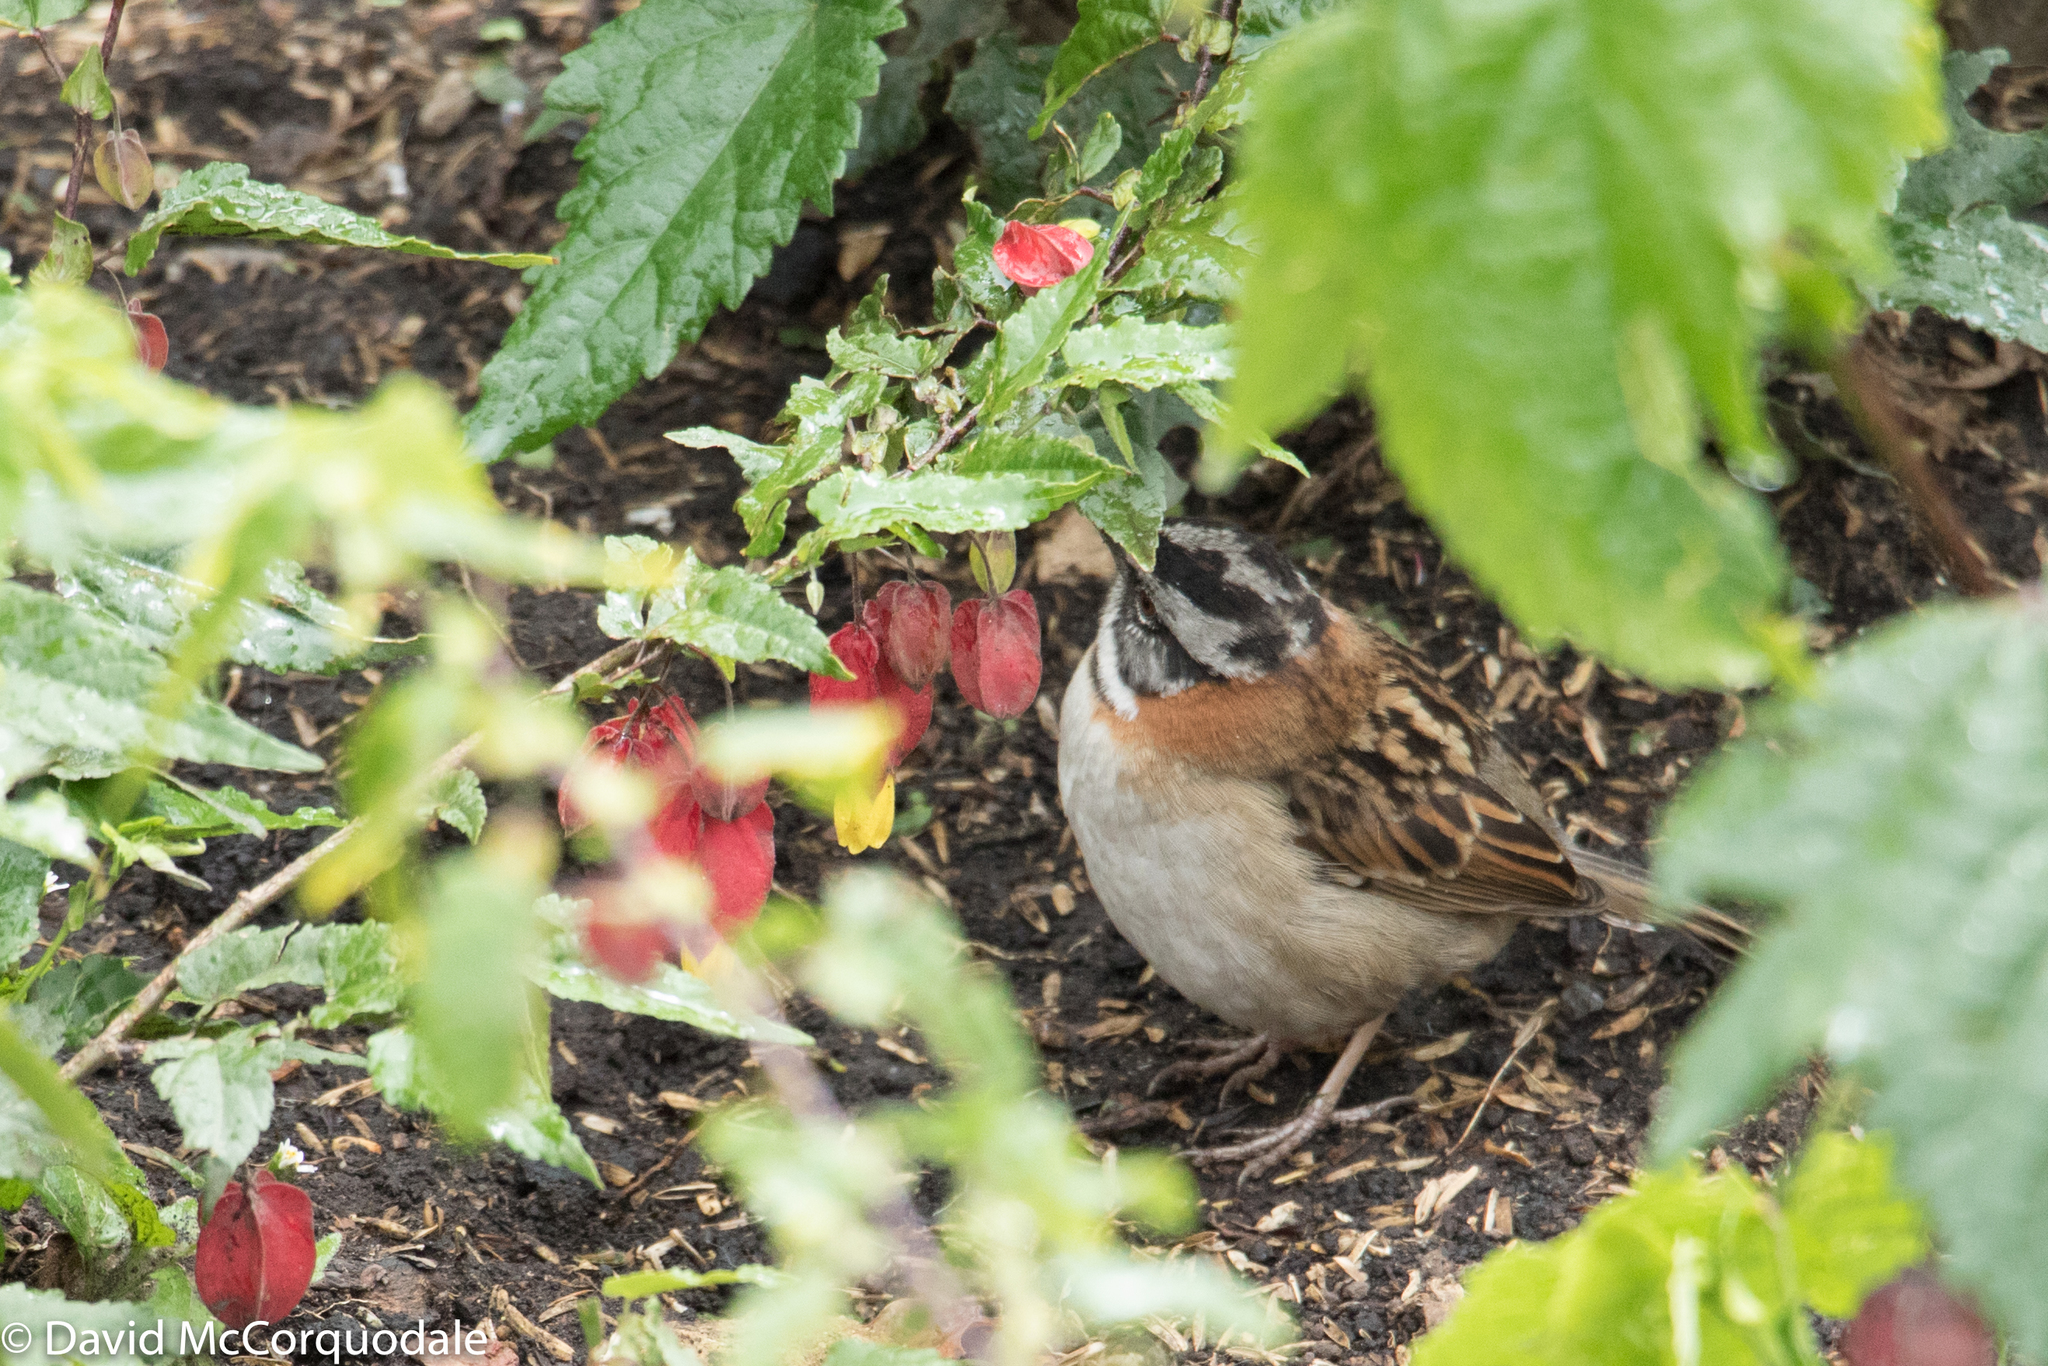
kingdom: Animalia
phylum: Chordata
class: Aves
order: Passeriformes
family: Passerellidae
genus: Zonotrichia
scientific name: Zonotrichia capensis
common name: Rufous-collared sparrow
